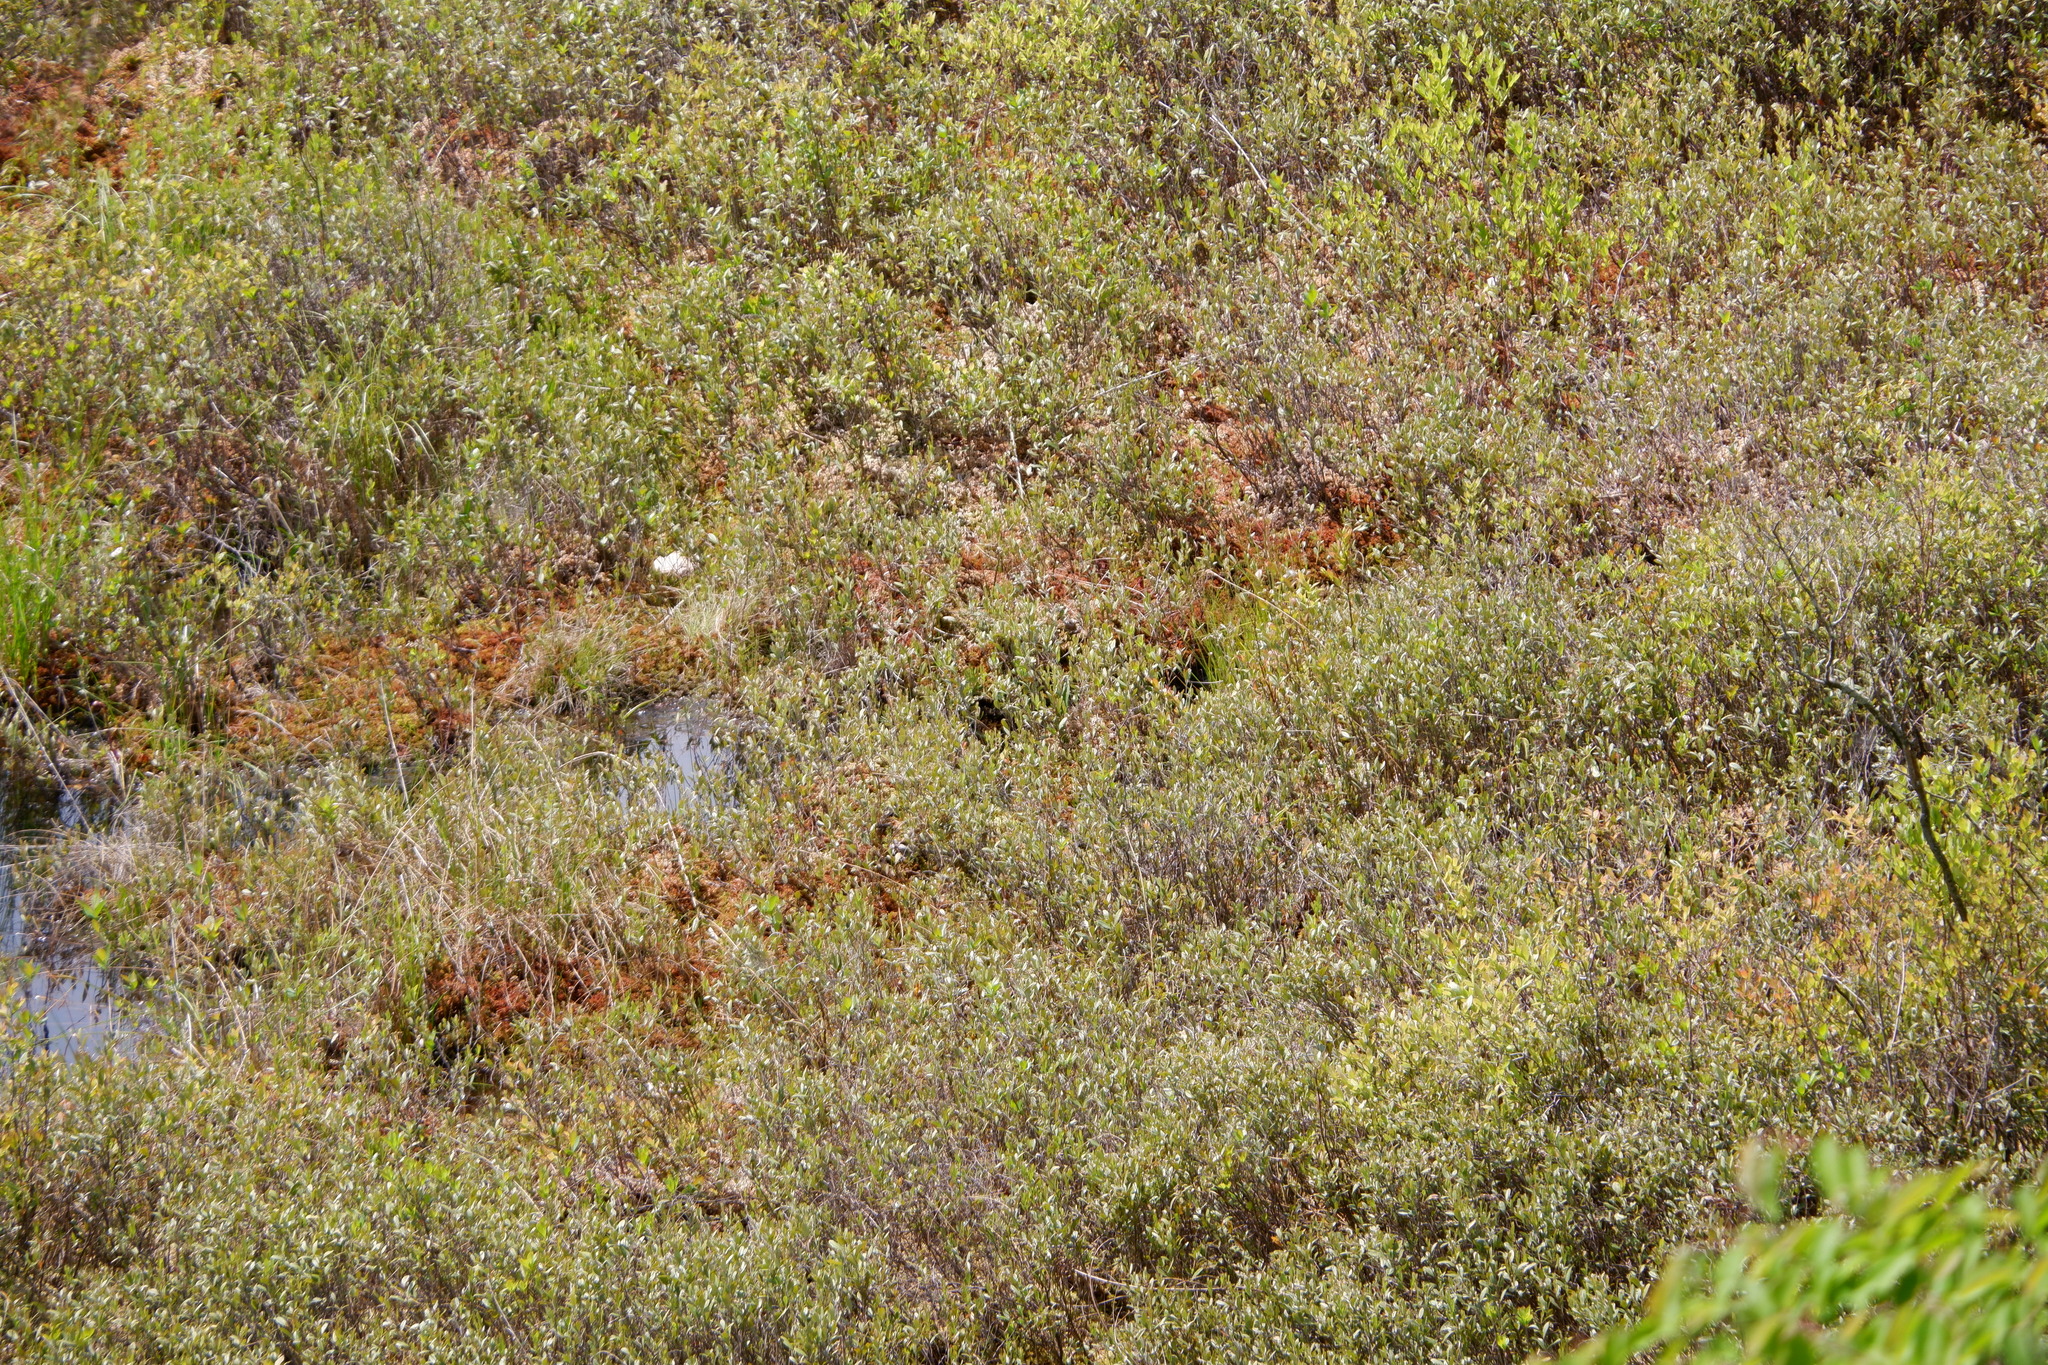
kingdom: Plantae
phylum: Tracheophyta
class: Magnoliopsida
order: Ericales
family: Ericaceae
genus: Chamaedaphne
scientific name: Chamaedaphne calyculata
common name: Leatherleaf
